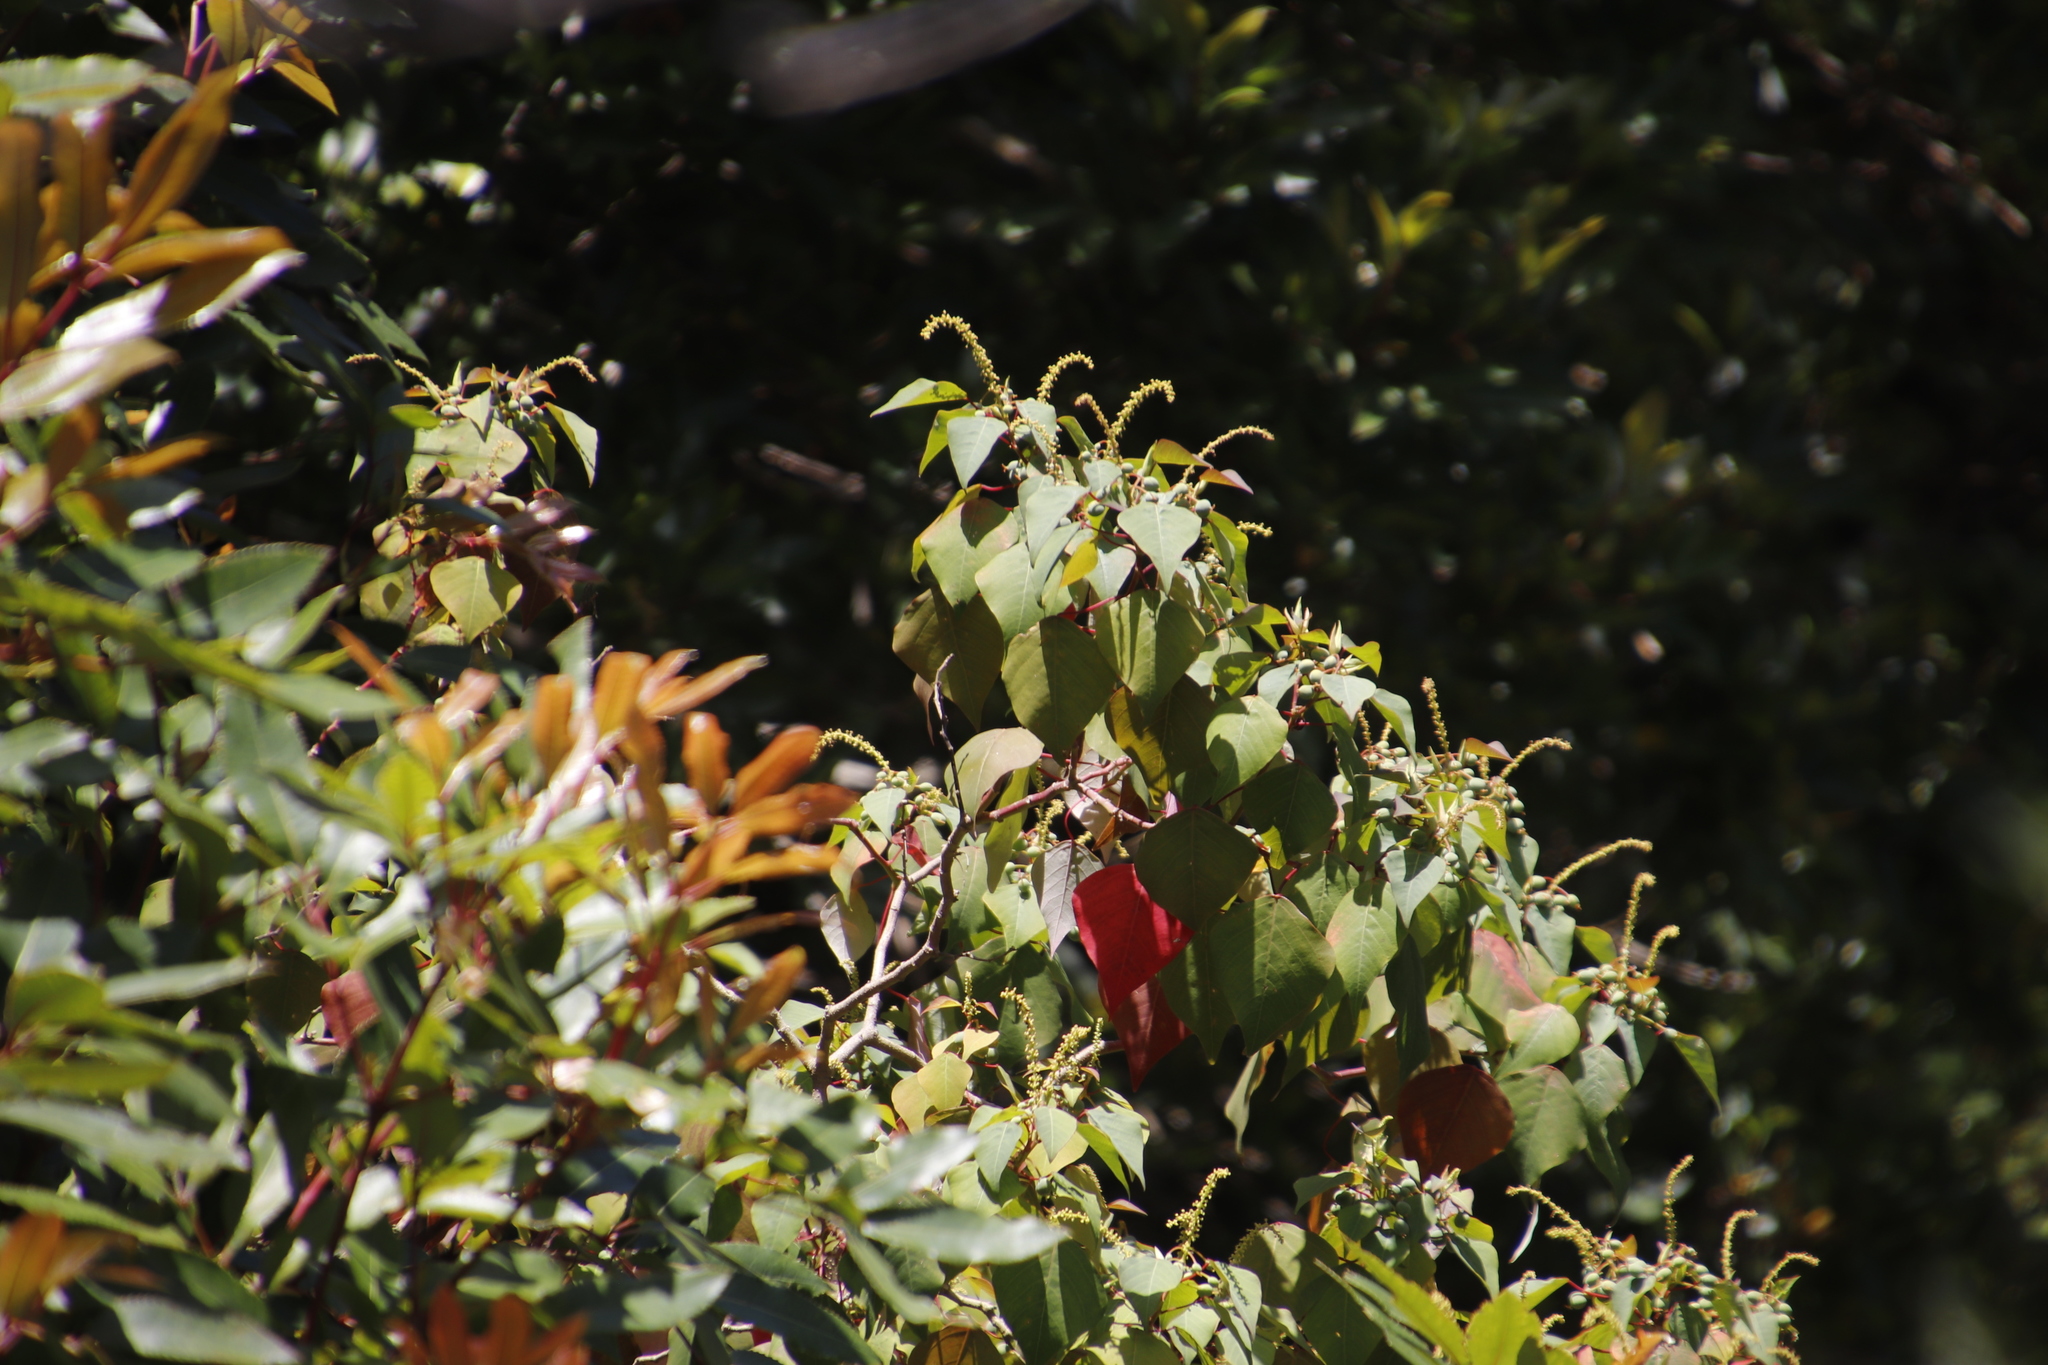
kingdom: Plantae
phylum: Tracheophyta
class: Magnoliopsida
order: Malpighiales
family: Euphorbiaceae
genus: Homalanthus
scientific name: Homalanthus populifolius
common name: Queensland poplar
